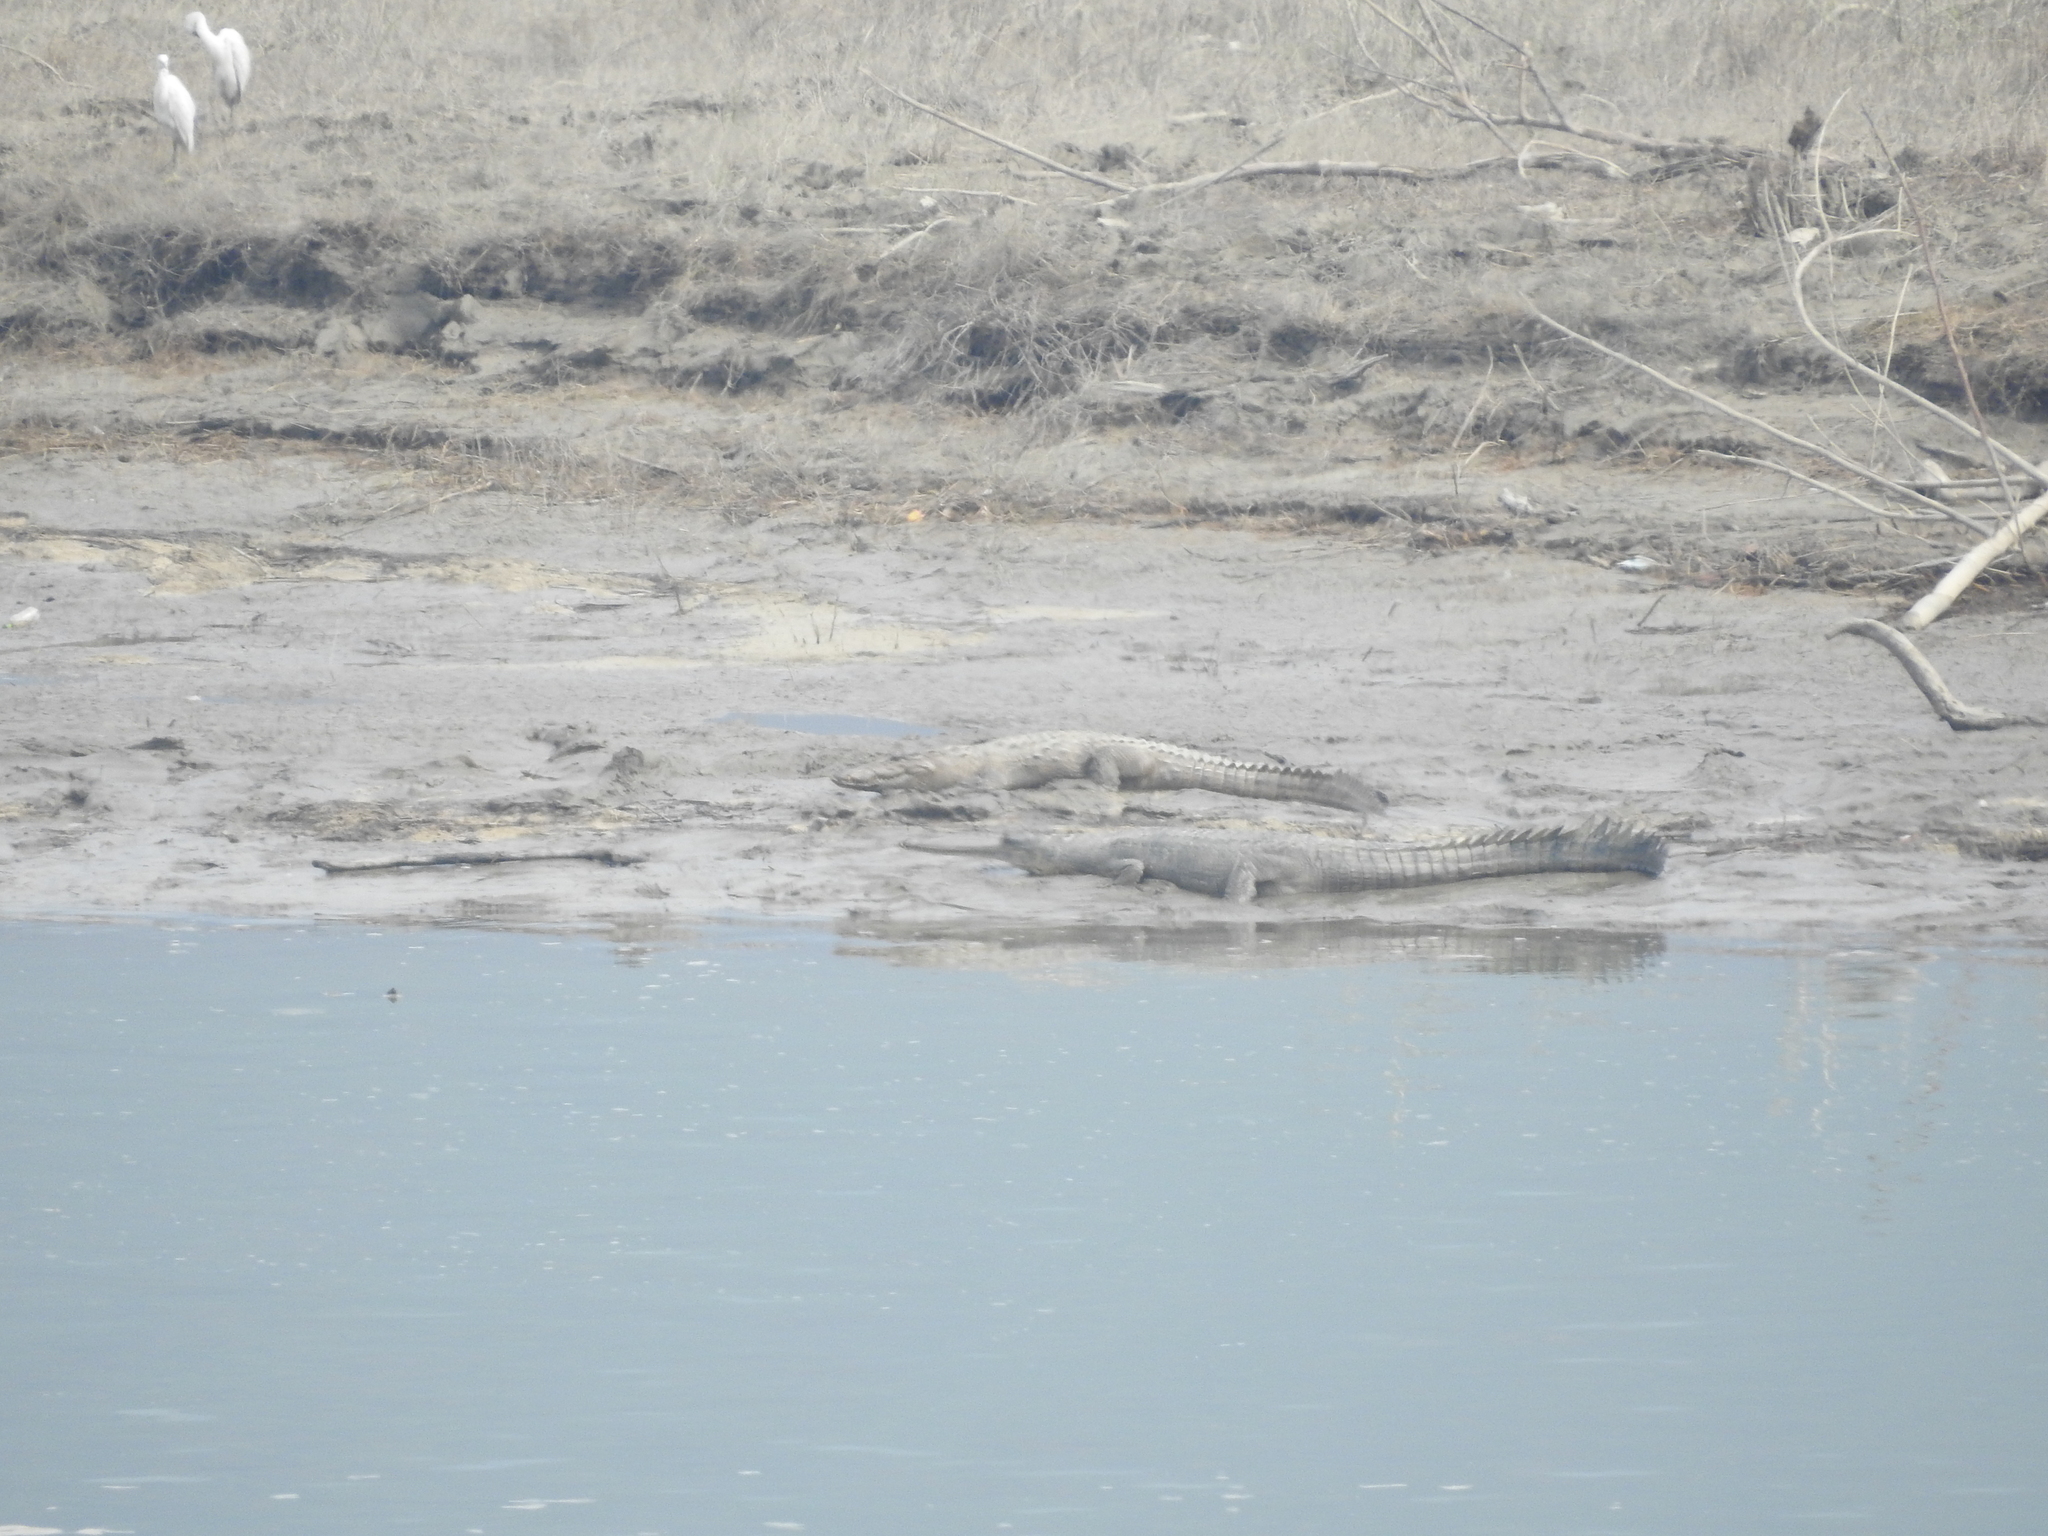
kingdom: Animalia
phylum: Chordata
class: Crocodylia
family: Crocodylidae
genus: Crocodylus
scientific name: Crocodylus palustris
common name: Mugger crocodile
